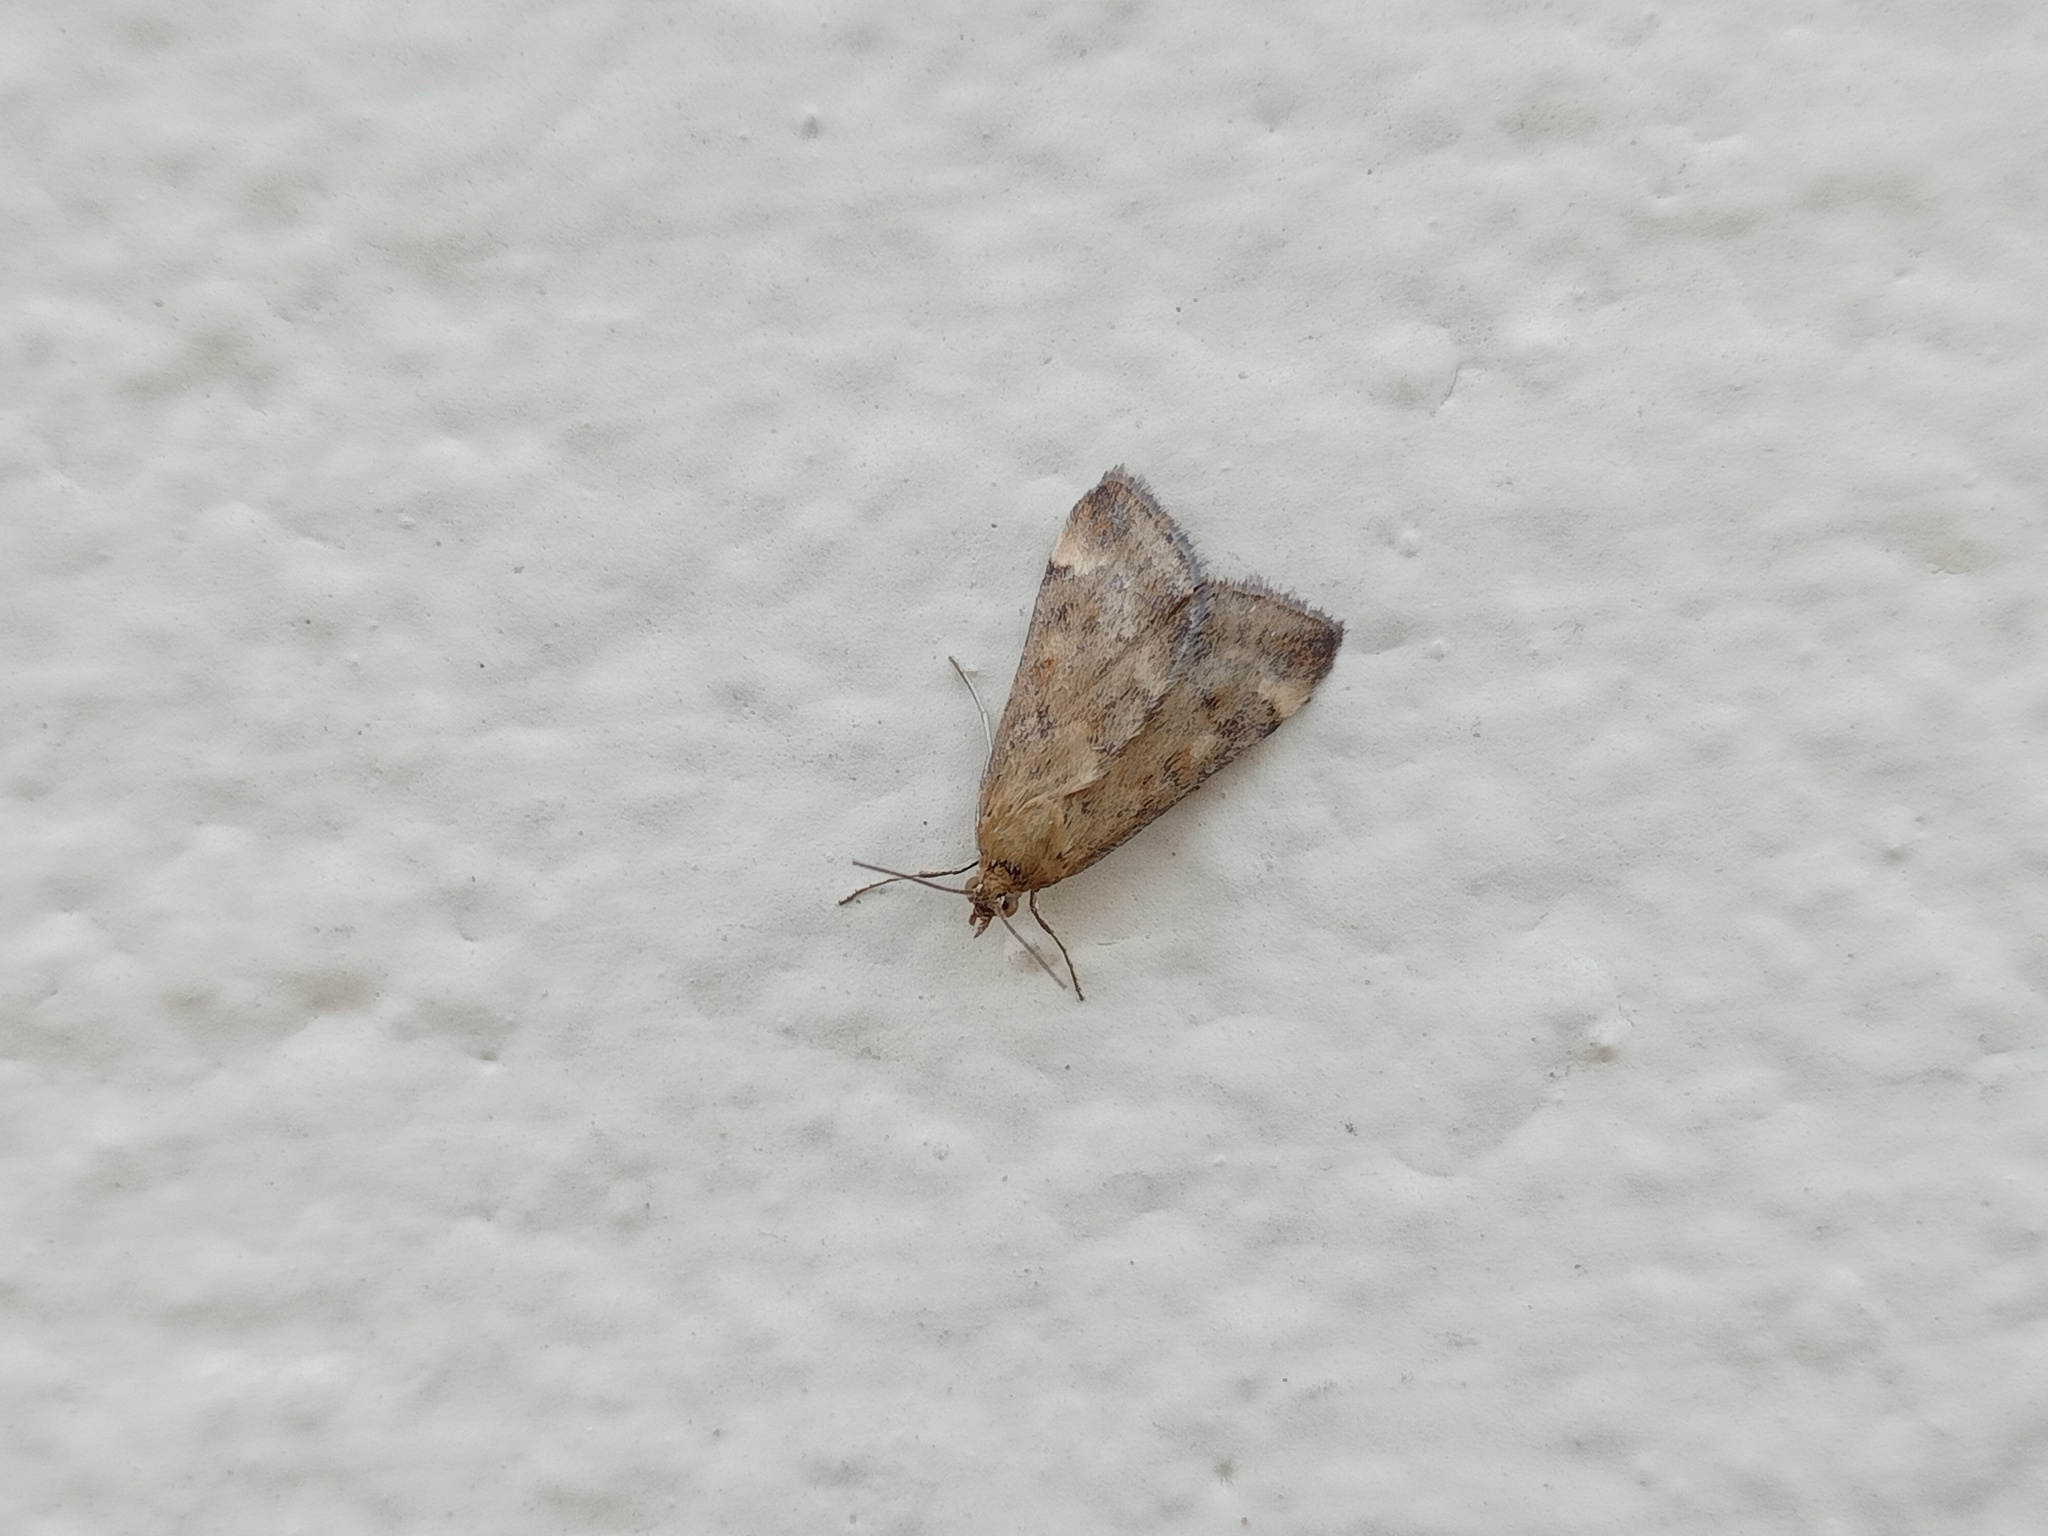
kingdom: Animalia
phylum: Arthropoda
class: Insecta
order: Lepidoptera
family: Crambidae
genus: Pyrausta
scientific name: Pyrausta despicata
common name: Straw-barred pearl
